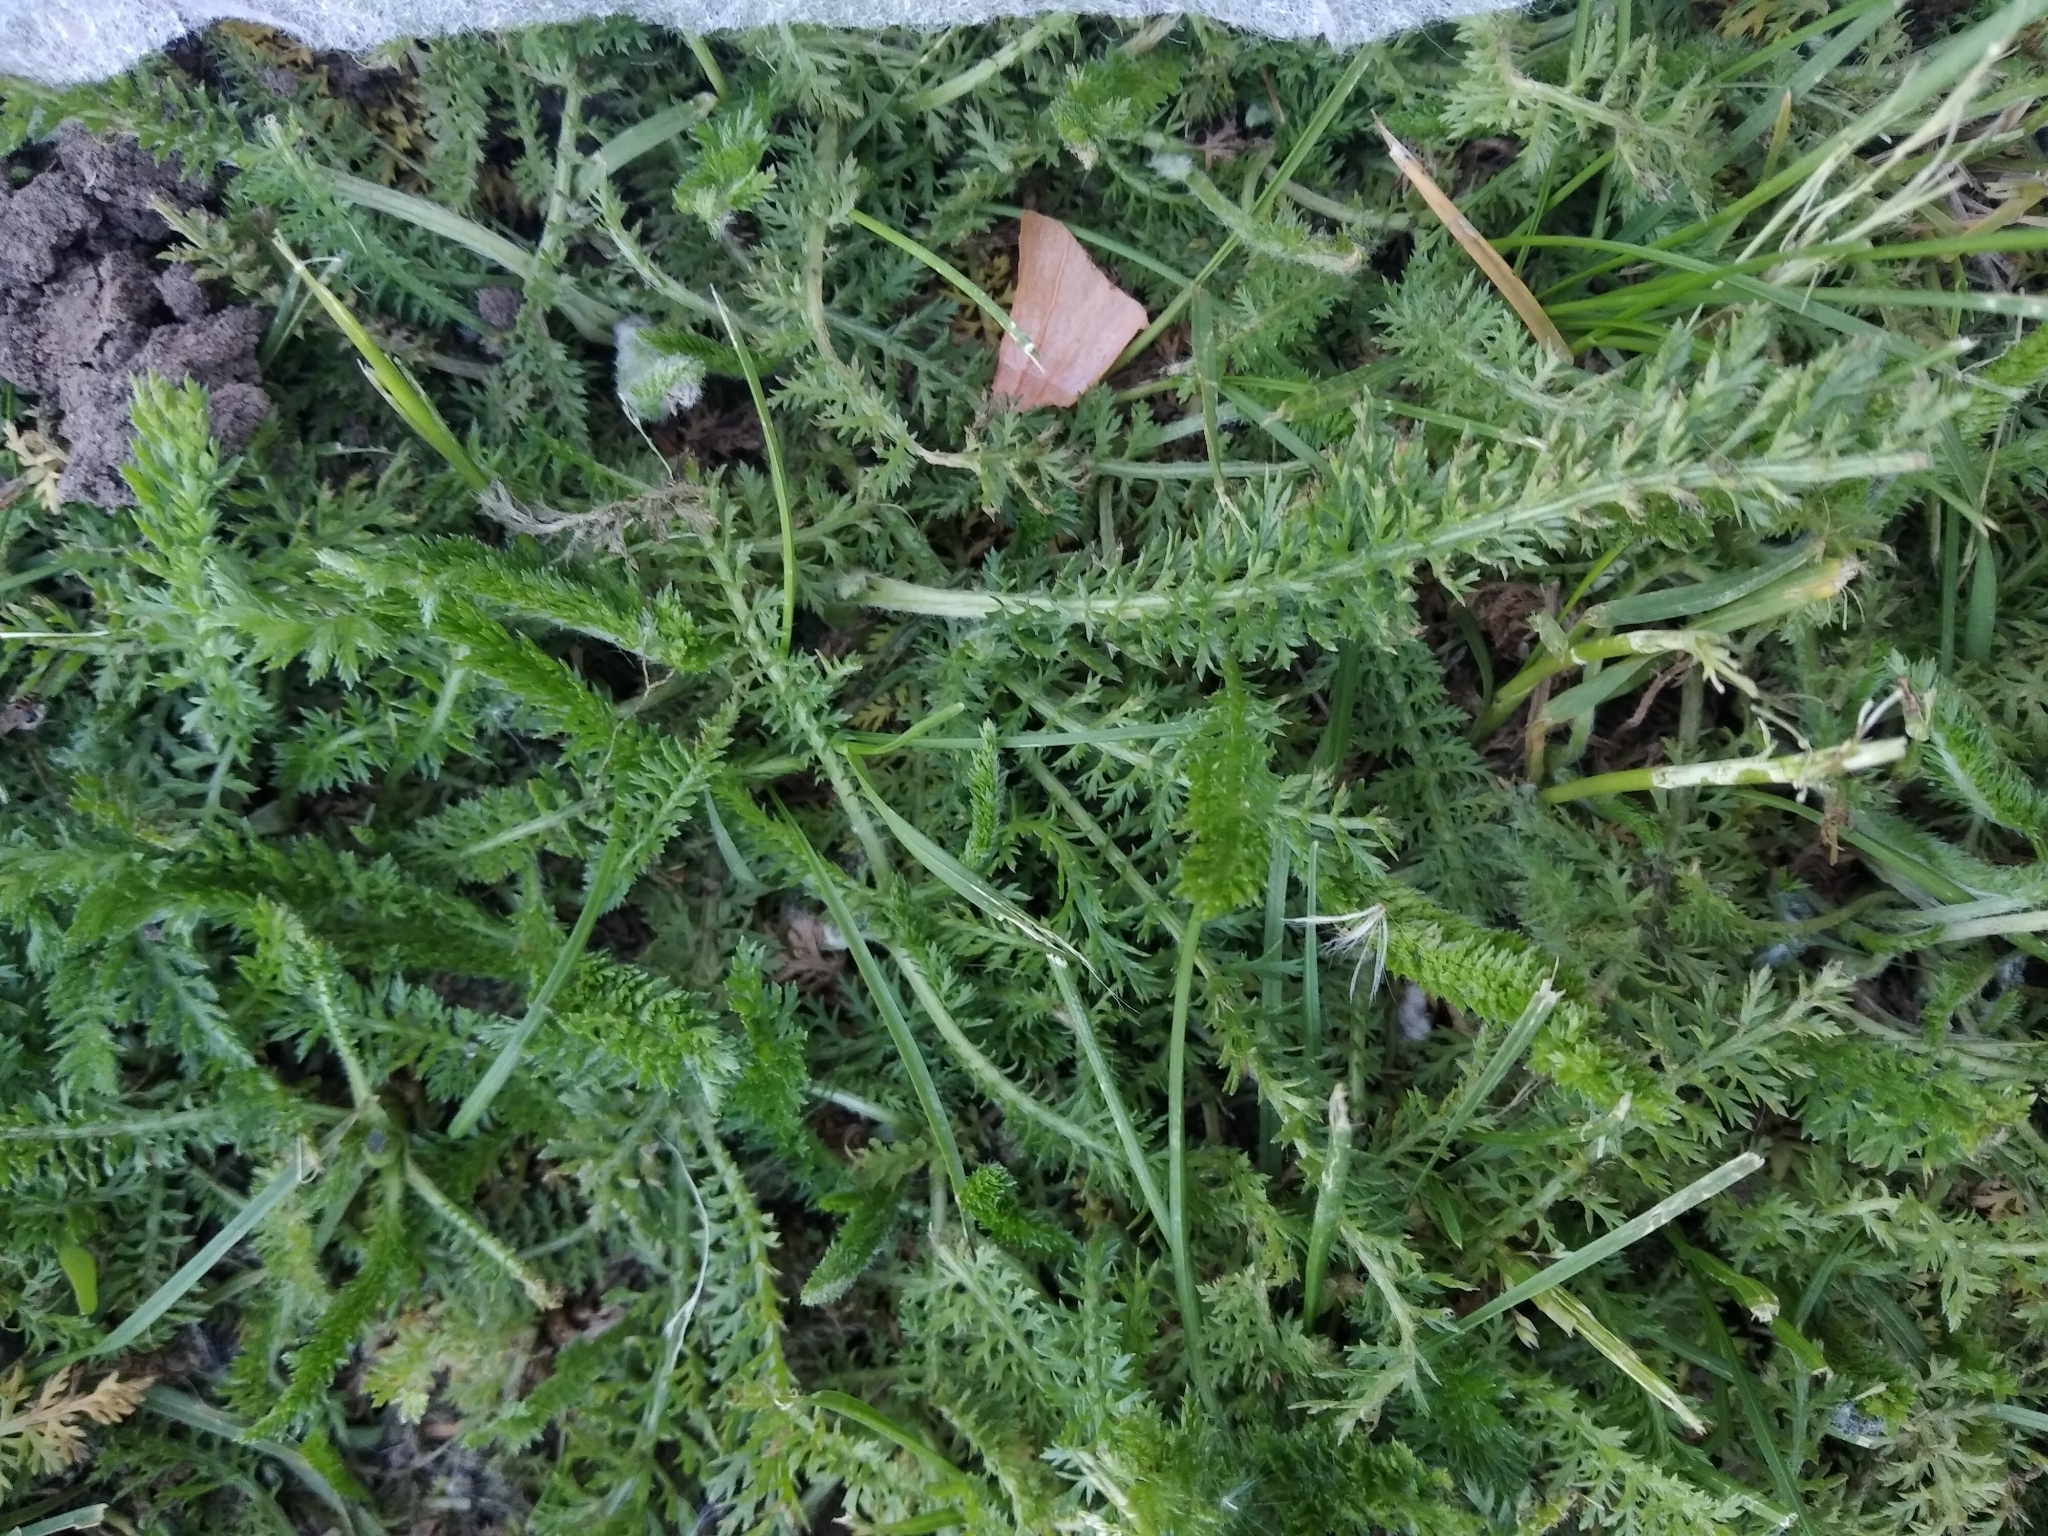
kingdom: Plantae
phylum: Tracheophyta
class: Magnoliopsida
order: Asterales
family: Asteraceae
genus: Achillea
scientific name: Achillea millefolium
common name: Yarrow
